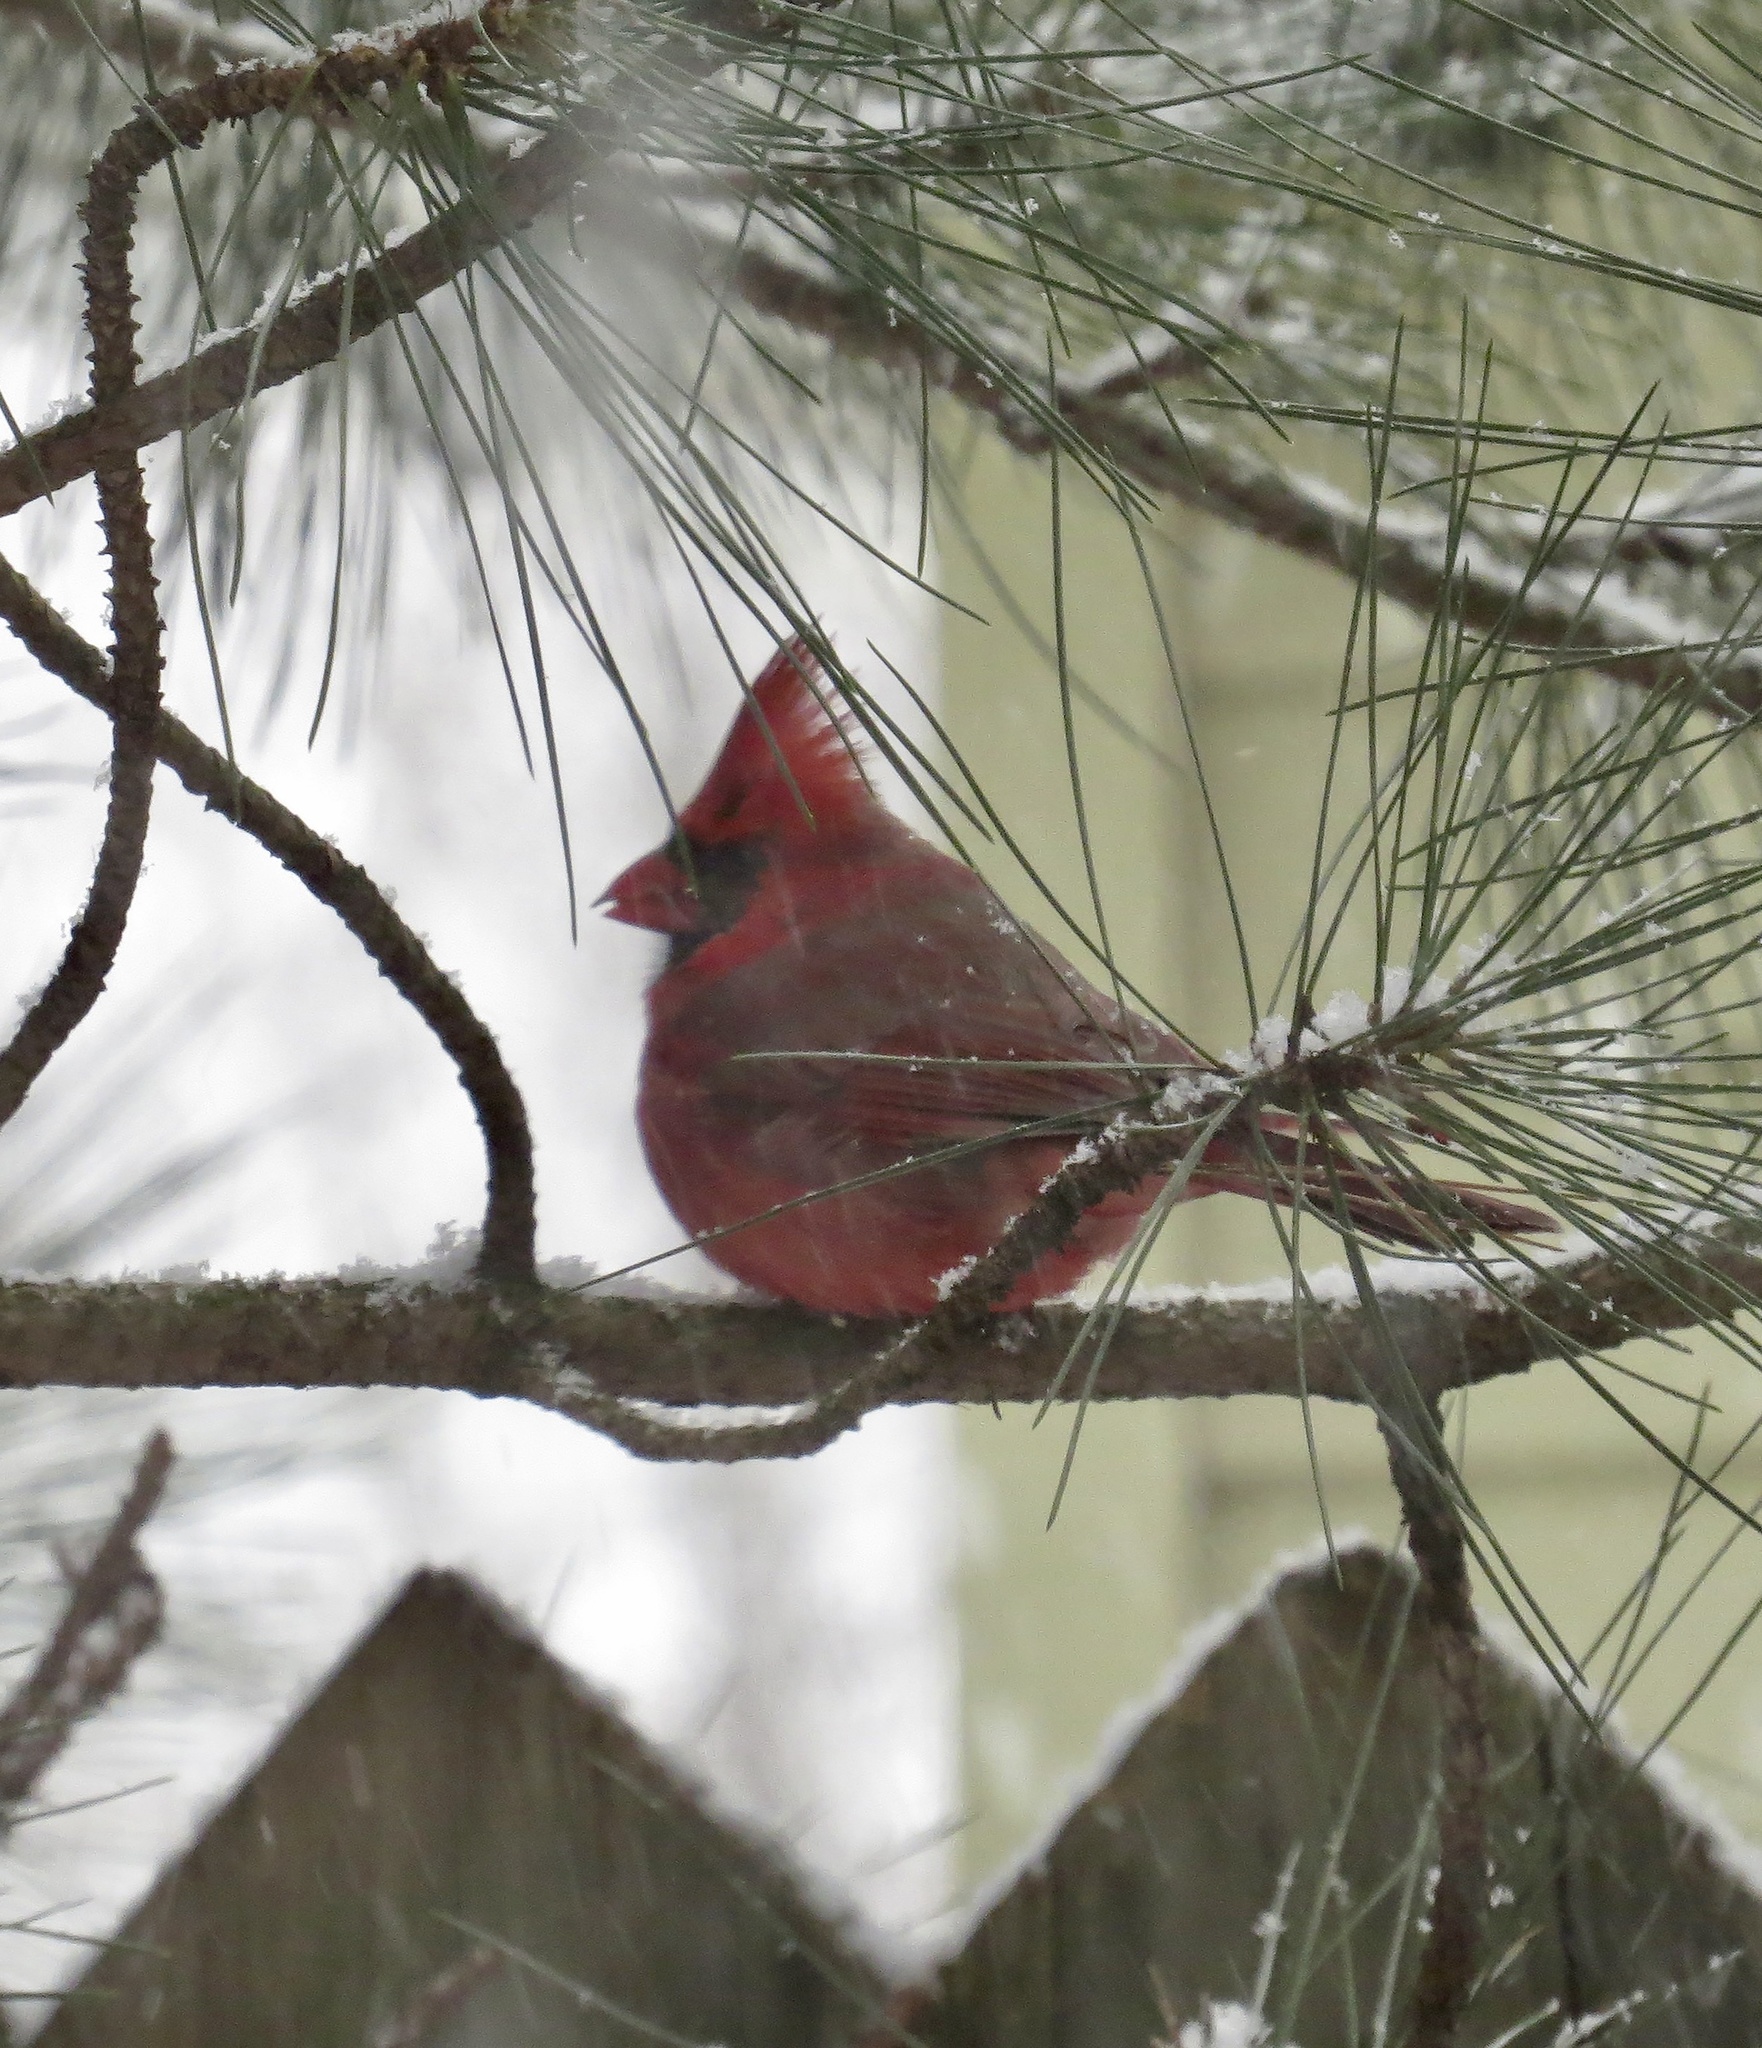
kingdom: Animalia
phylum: Chordata
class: Aves
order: Passeriformes
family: Cardinalidae
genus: Cardinalis
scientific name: Cardinalis cardinalis
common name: Northern cardinal
